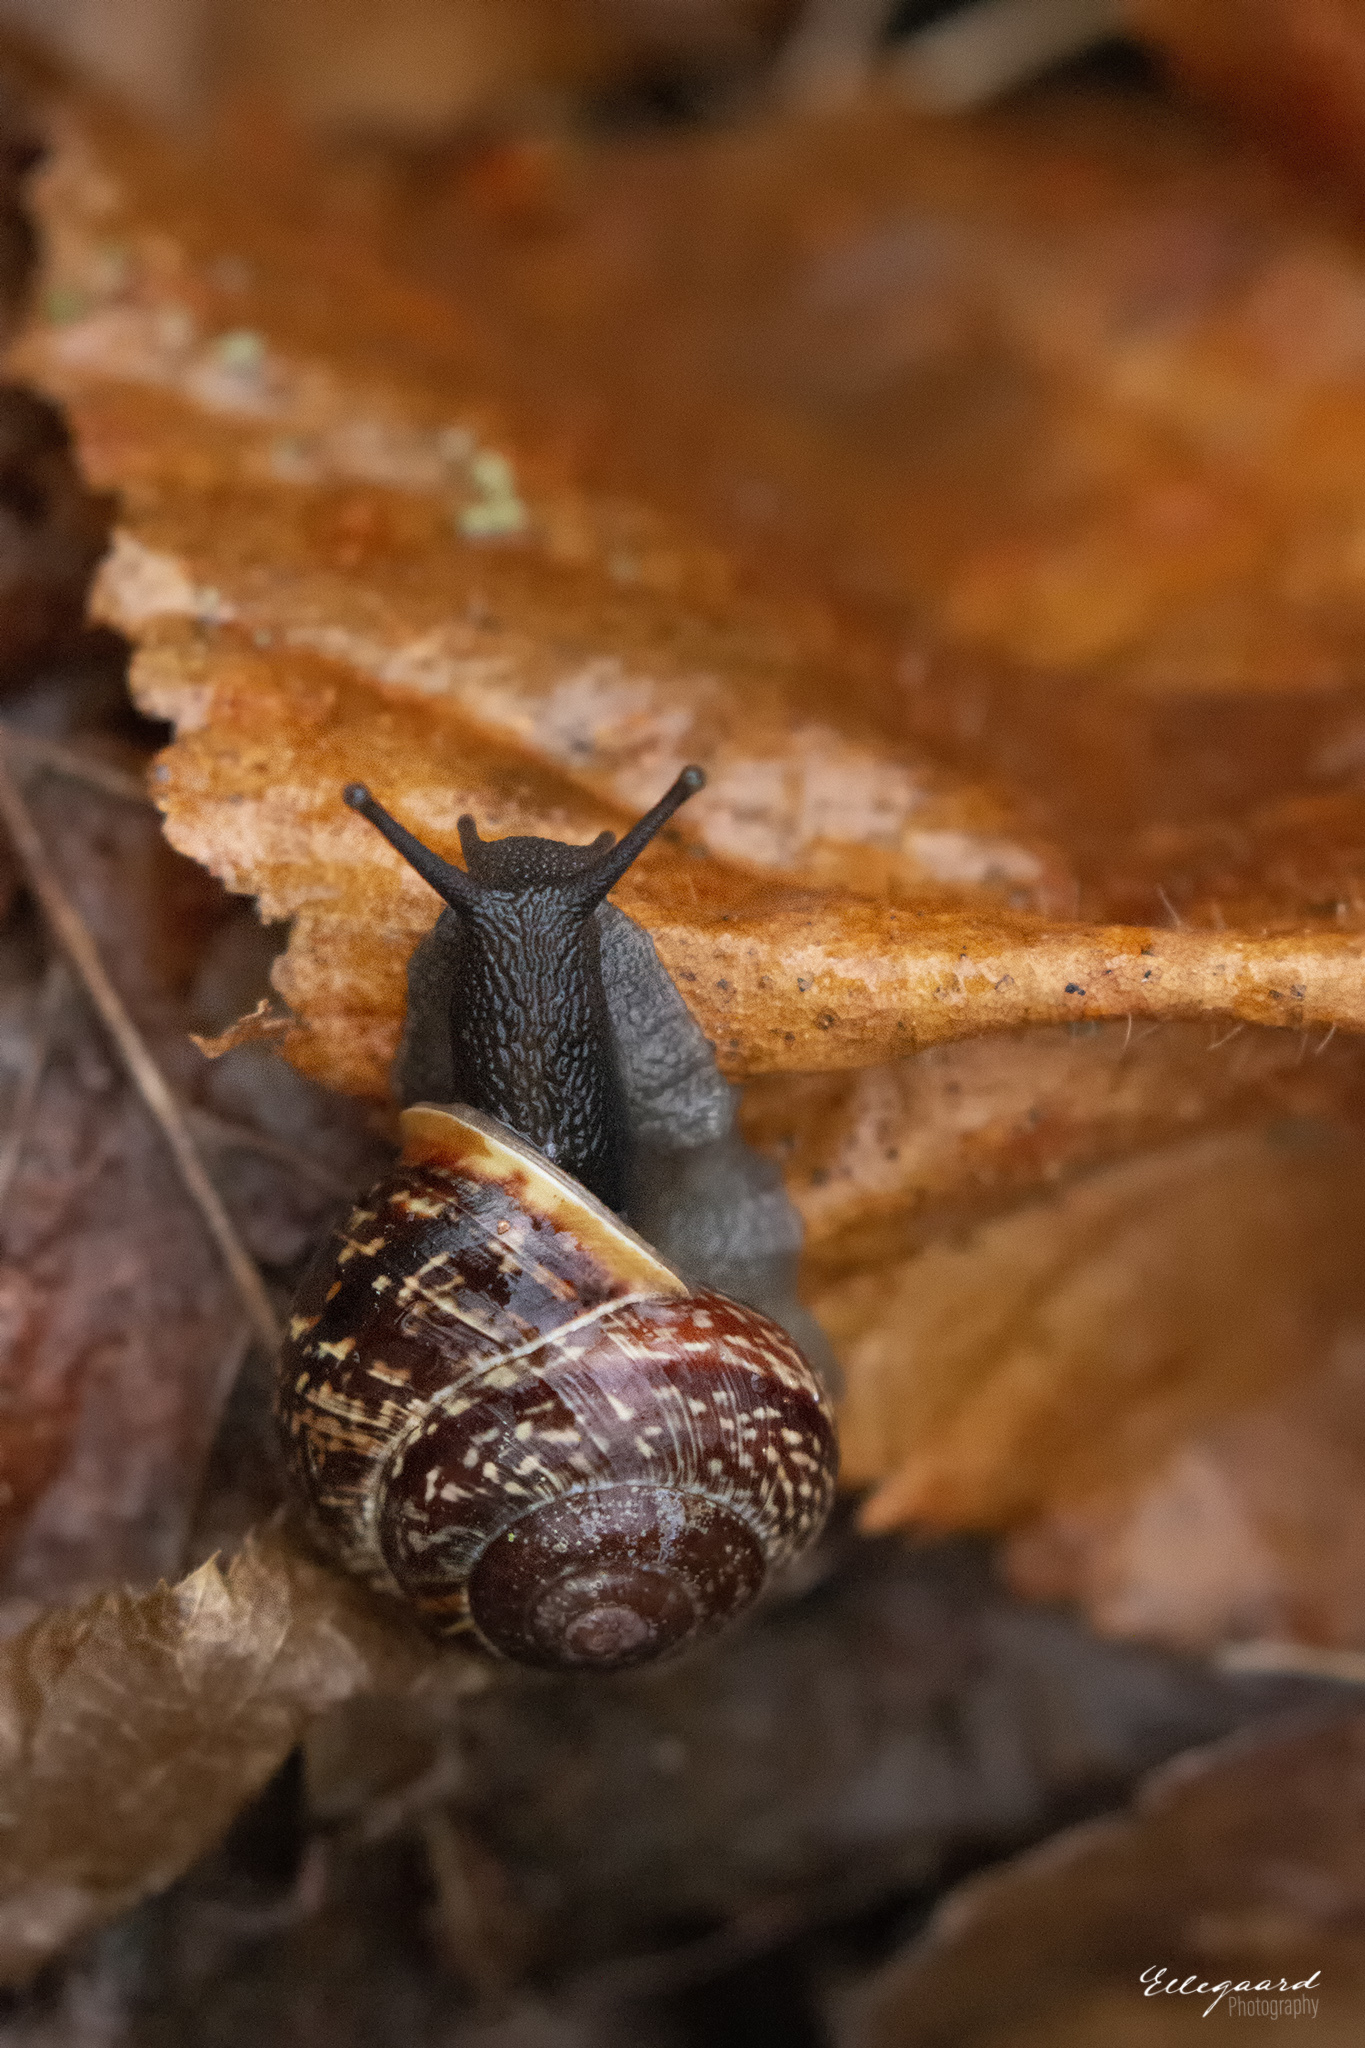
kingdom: Animalia
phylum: Mollusca
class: Gastropoda
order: Stylommatophora
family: Helicidae
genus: Arianta
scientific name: Arianta arbustorum
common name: Copse snail
